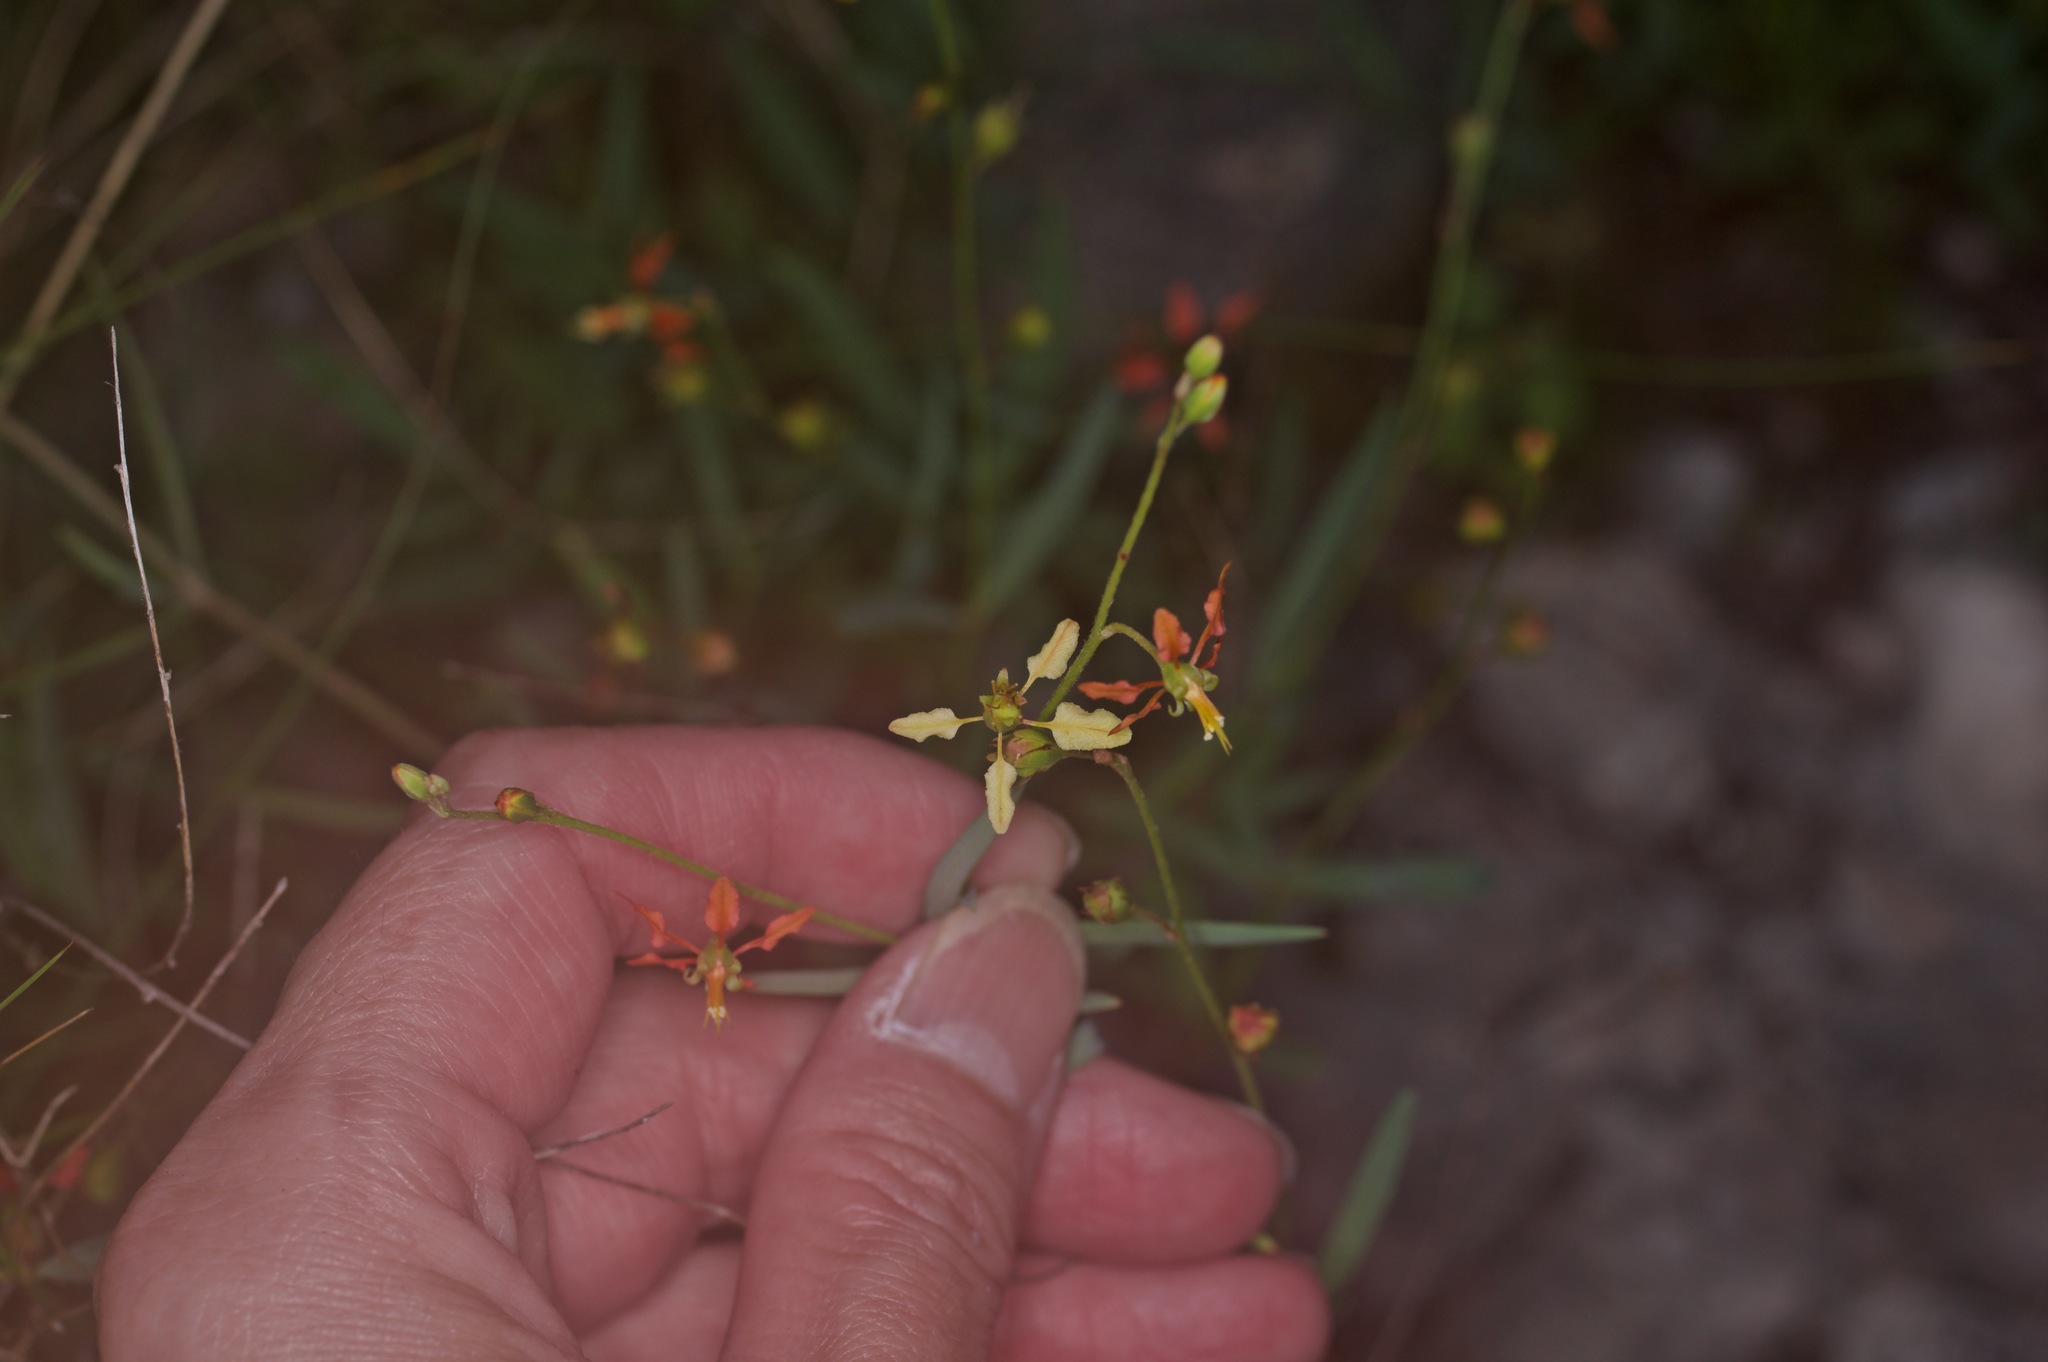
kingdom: Plantae
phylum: Tracheophyta
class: Magnoliopsida
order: Malpighiales
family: Malpighiaceae
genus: Galphimia
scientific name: Galphimia angustifolia
